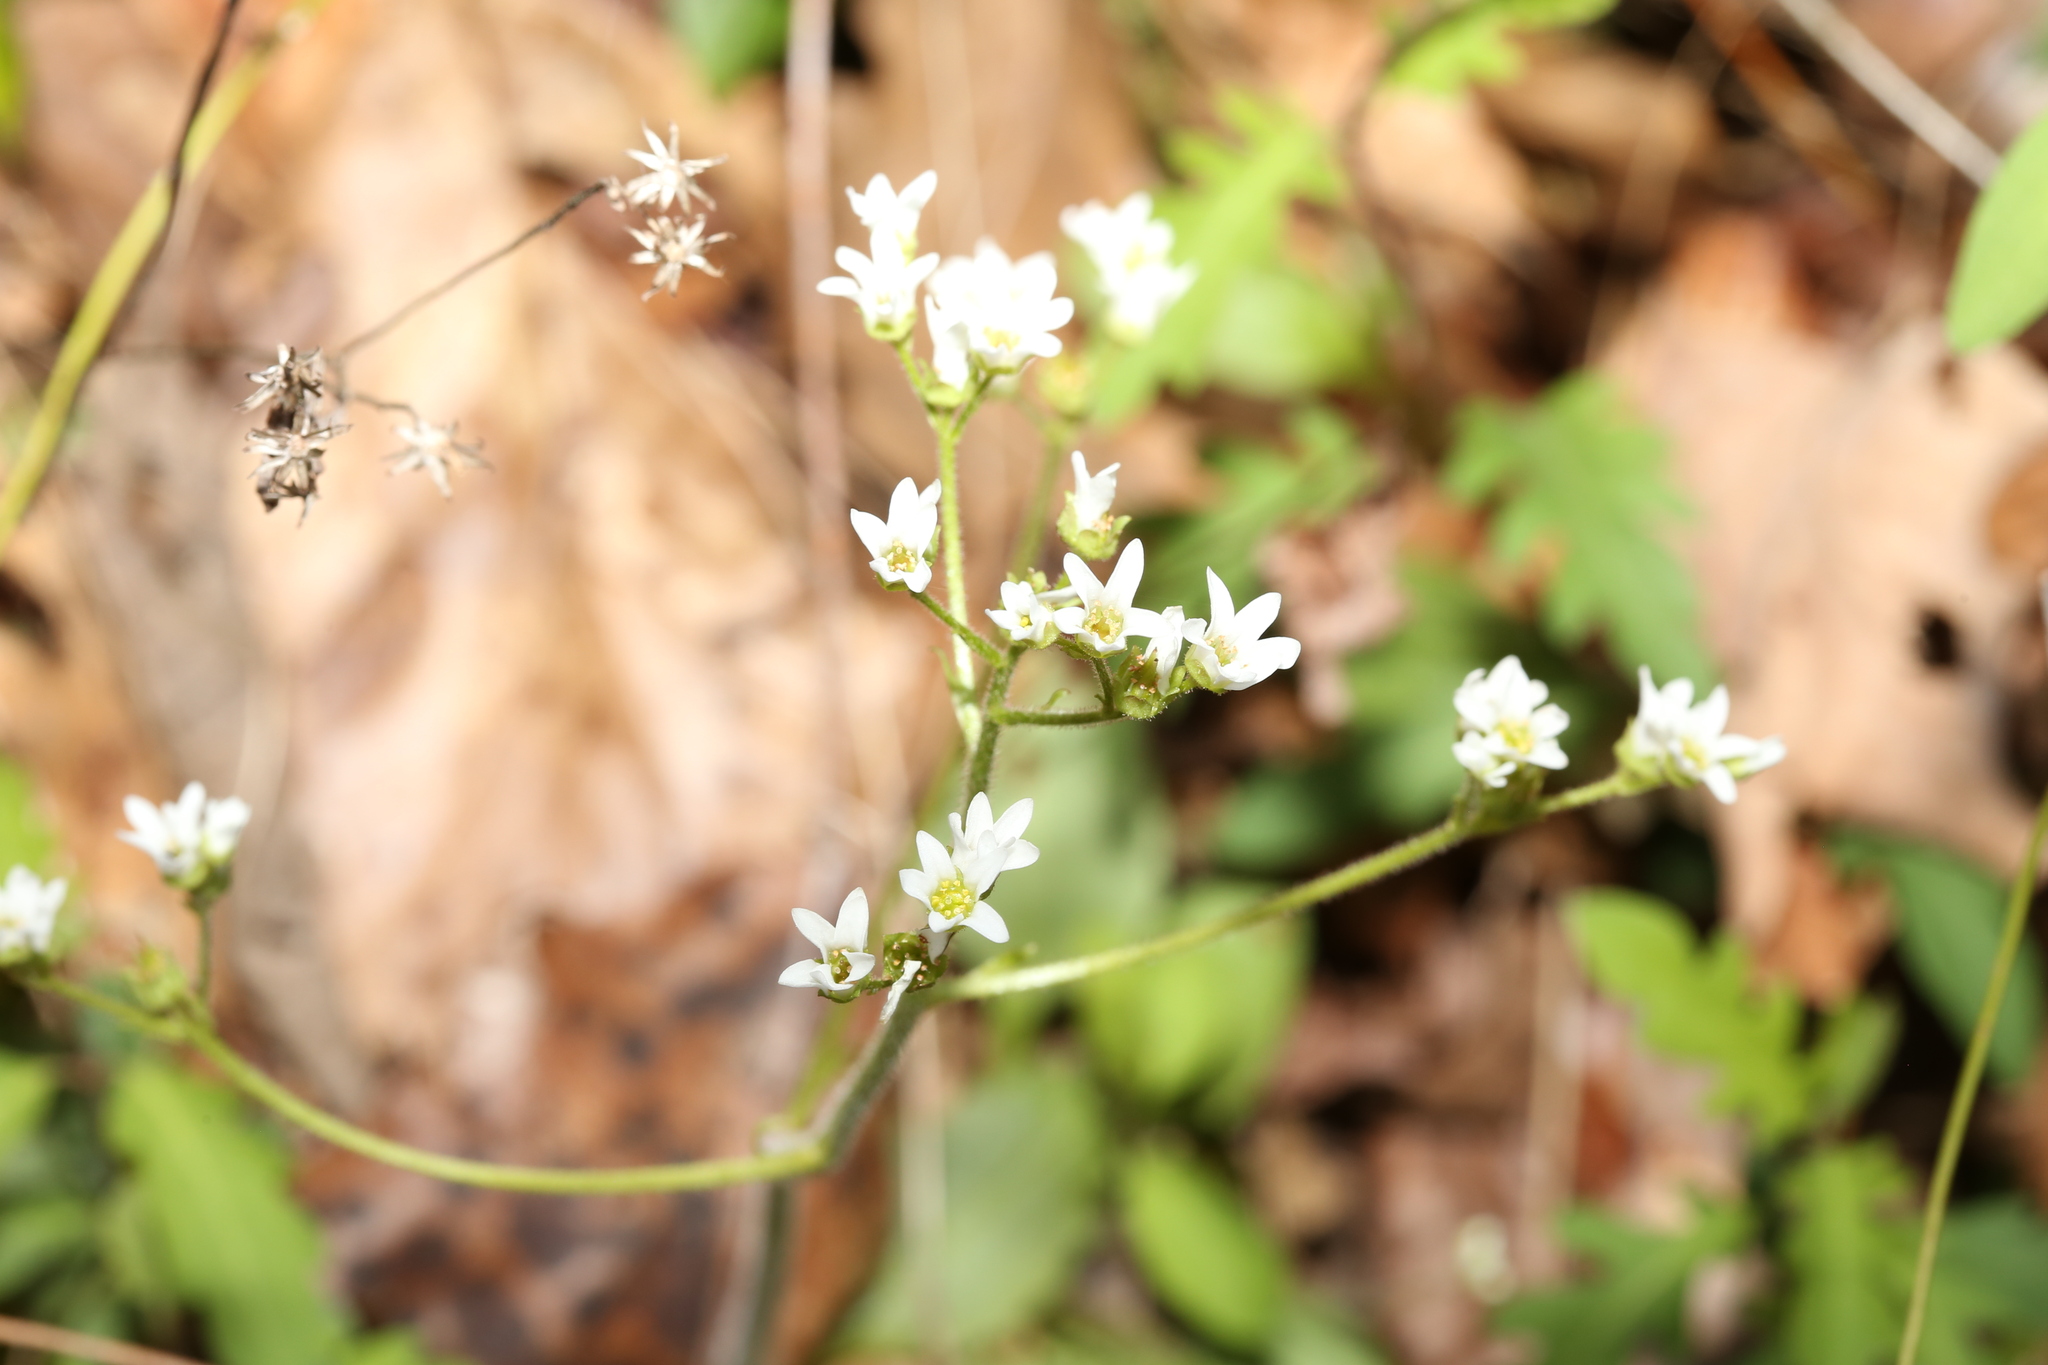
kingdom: Plantae
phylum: Tracheophyta
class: Magnoliopsida
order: Saxifragales
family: Saxifragaceae
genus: Micranthes
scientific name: Micranthes virginiensis
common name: Early saxifrage
